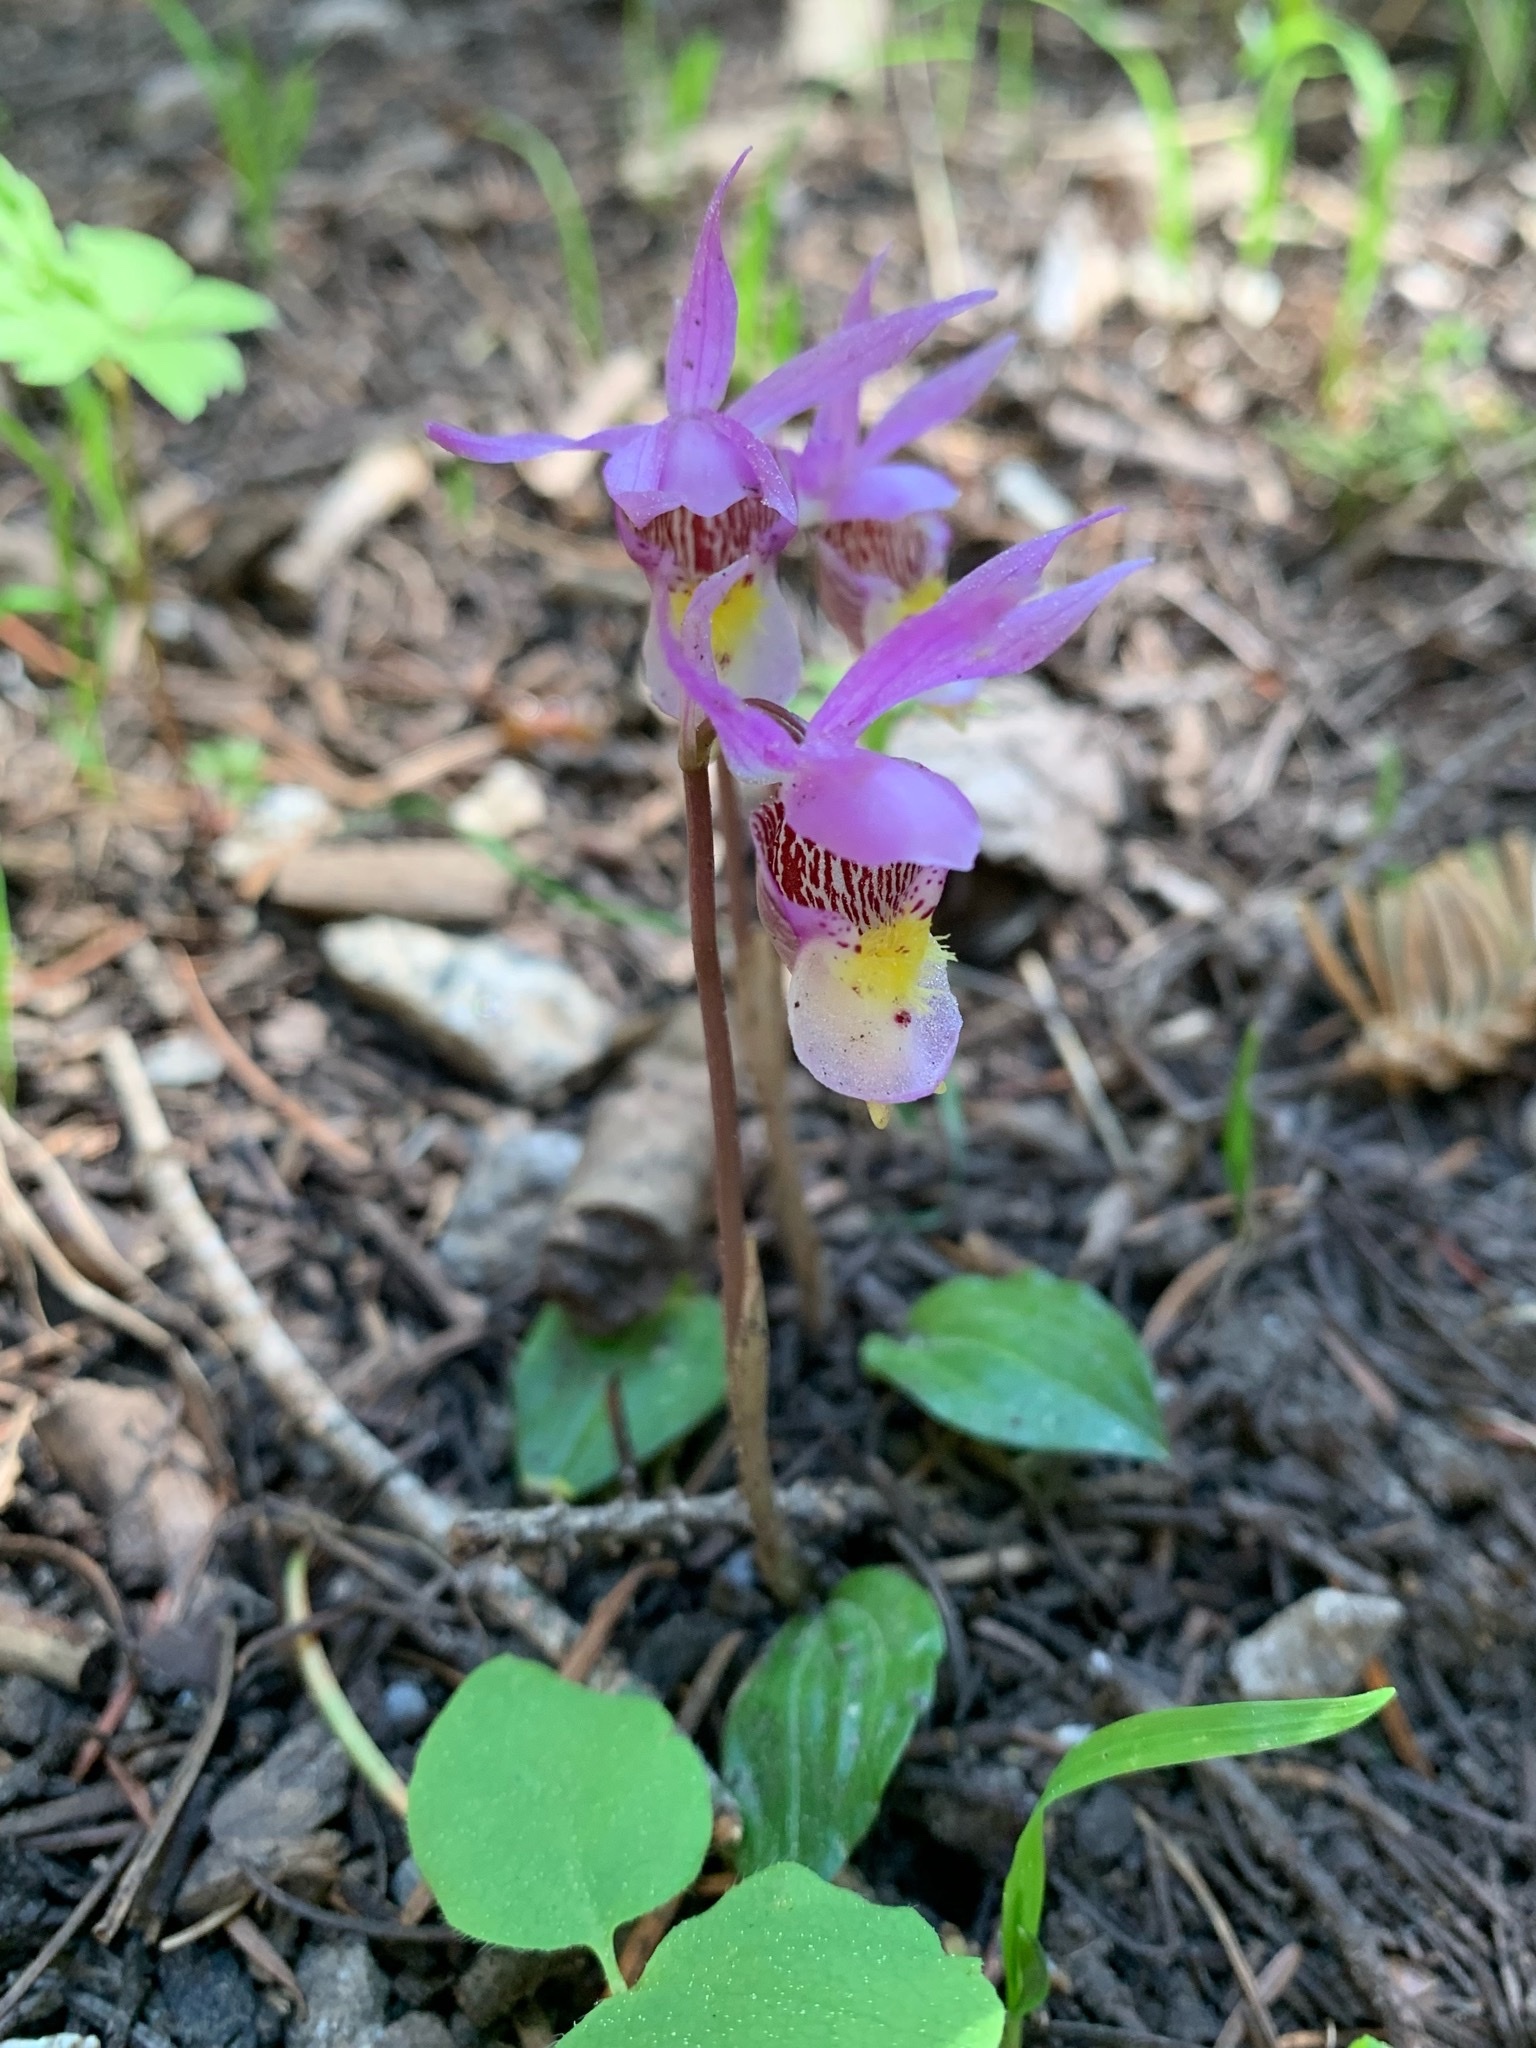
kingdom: Plantae
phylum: Tracheophyta
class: Liliopsida
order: Asparagales
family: Orchidaceae
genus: Calypso
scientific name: Calypso bulbosa
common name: Calypso
